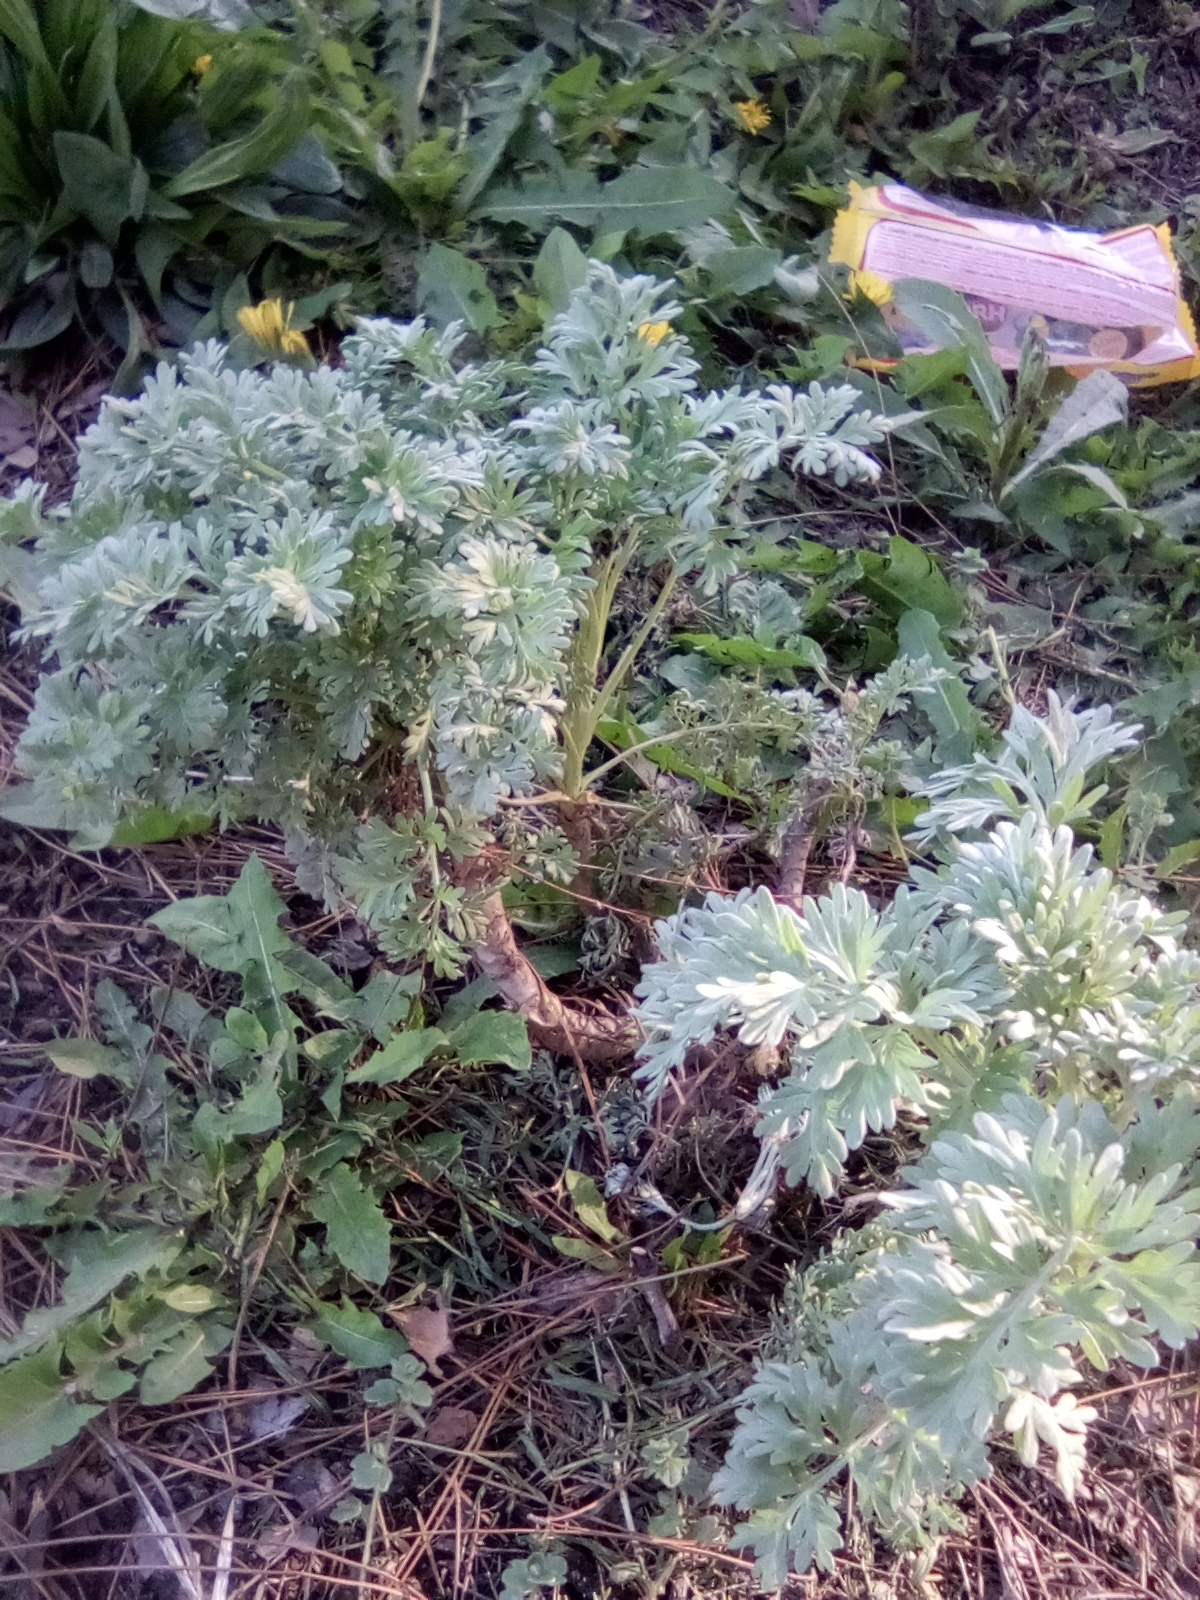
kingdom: Plantae
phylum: Tracheophyta
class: Magnoliopsida
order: Asterales
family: Asteraceae
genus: Artemisia
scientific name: Artemisia absinthium
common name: Wormwood
